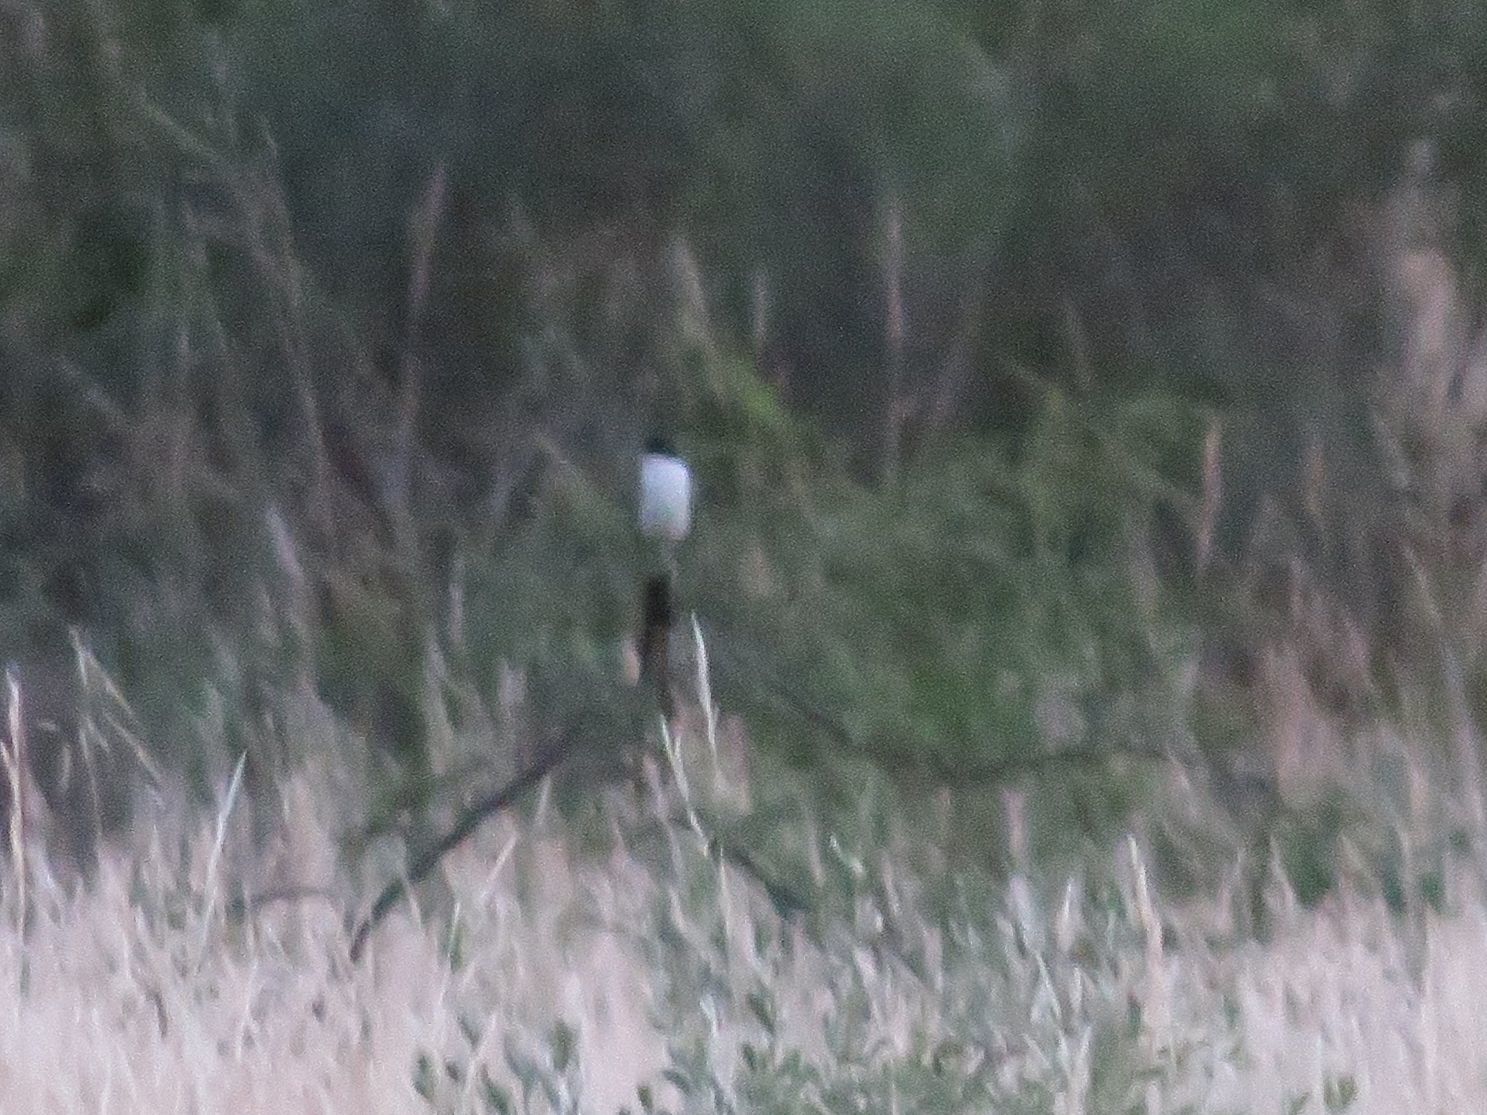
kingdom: Animalia
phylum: Chordata
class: Aves
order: Passeriformes
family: Tyrannidae
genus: Tyrannus
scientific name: Tyrannus savana
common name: Fork-tailed flycatcher
